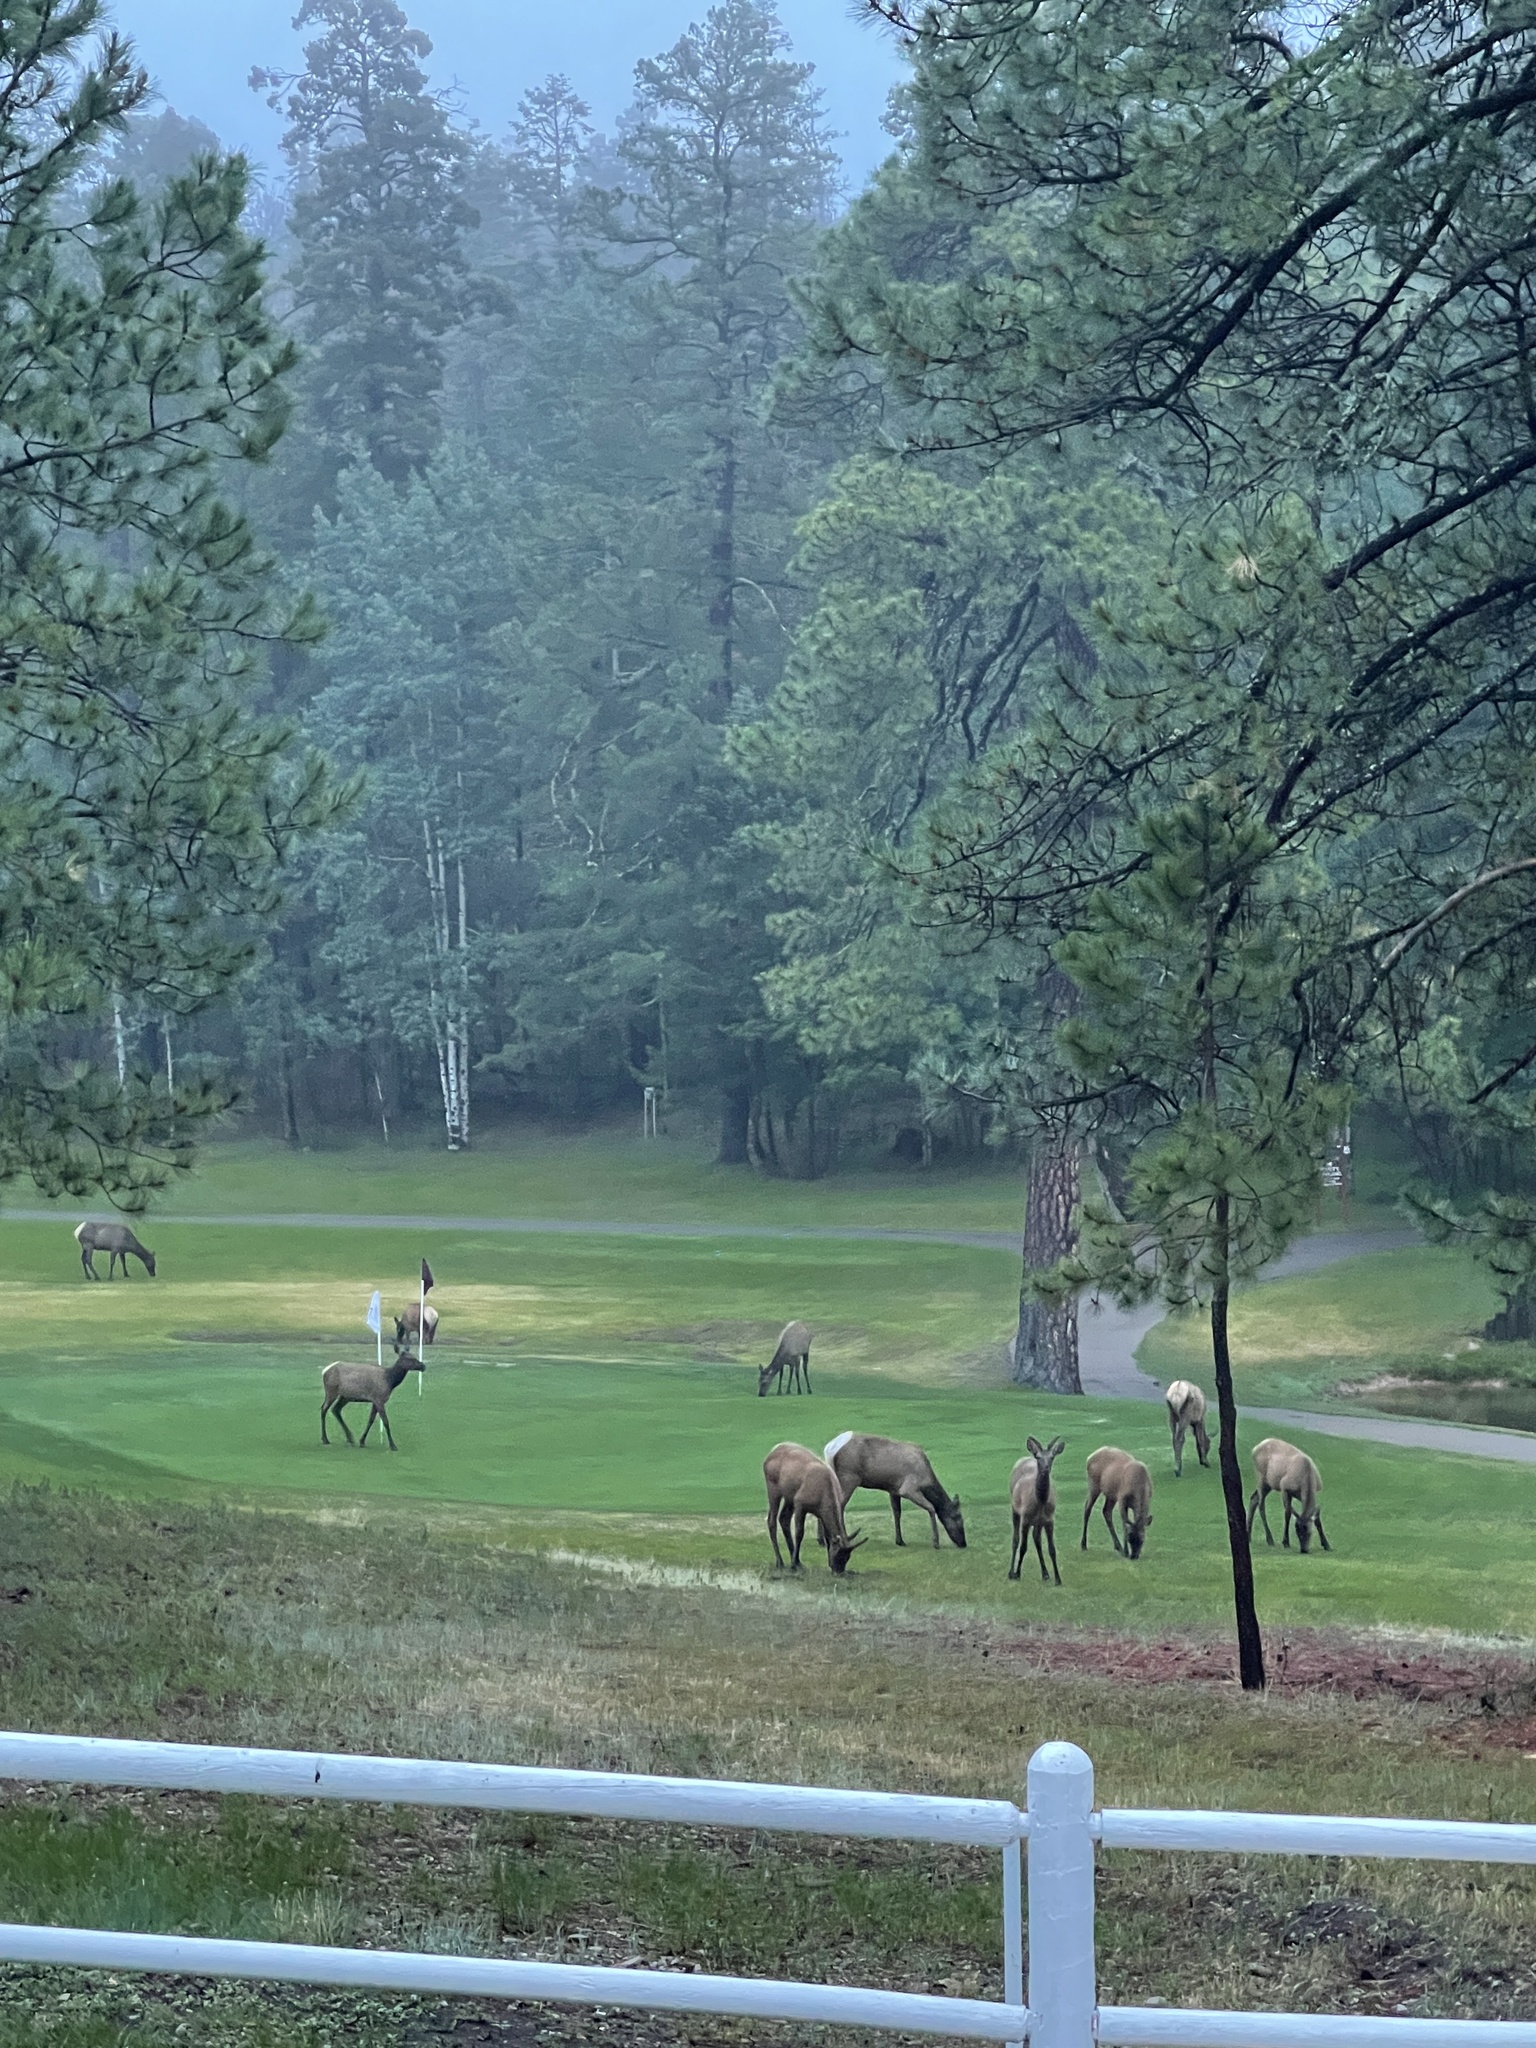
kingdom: Animalia
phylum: Chordata
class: Mammalia
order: Artiodactyla
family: Cervidae
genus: Cervus
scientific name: Cervus elaphus
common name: Red deer
